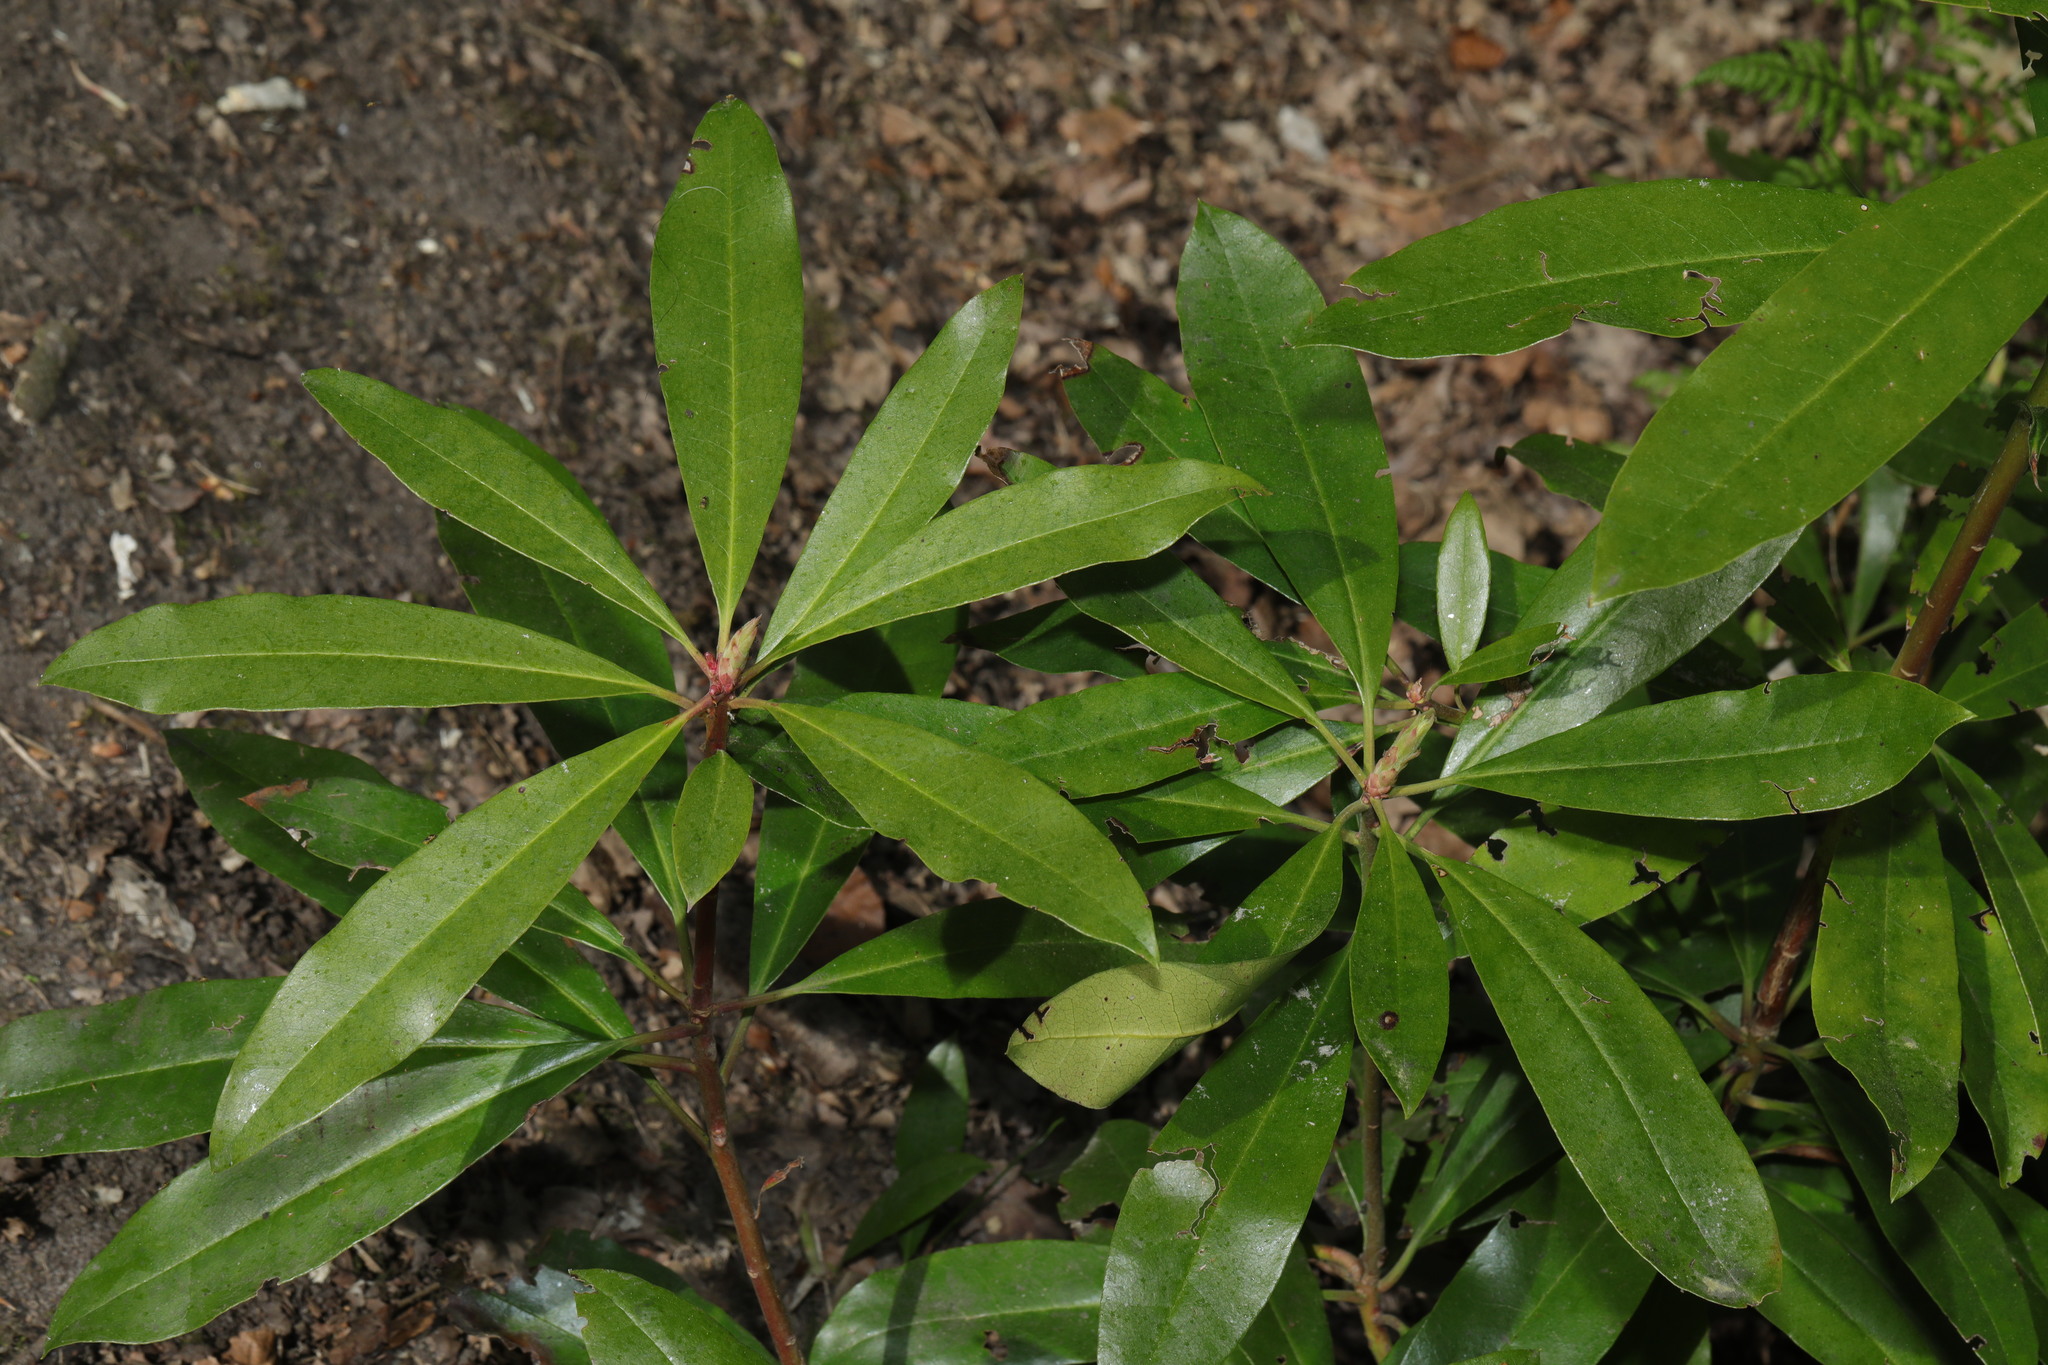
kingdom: Plantae
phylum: Tracheophyta
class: Magnoliopsida
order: Ericales
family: Ericaceae
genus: Rhododendron
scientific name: Rhododendron ponticum
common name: Rhododendron
